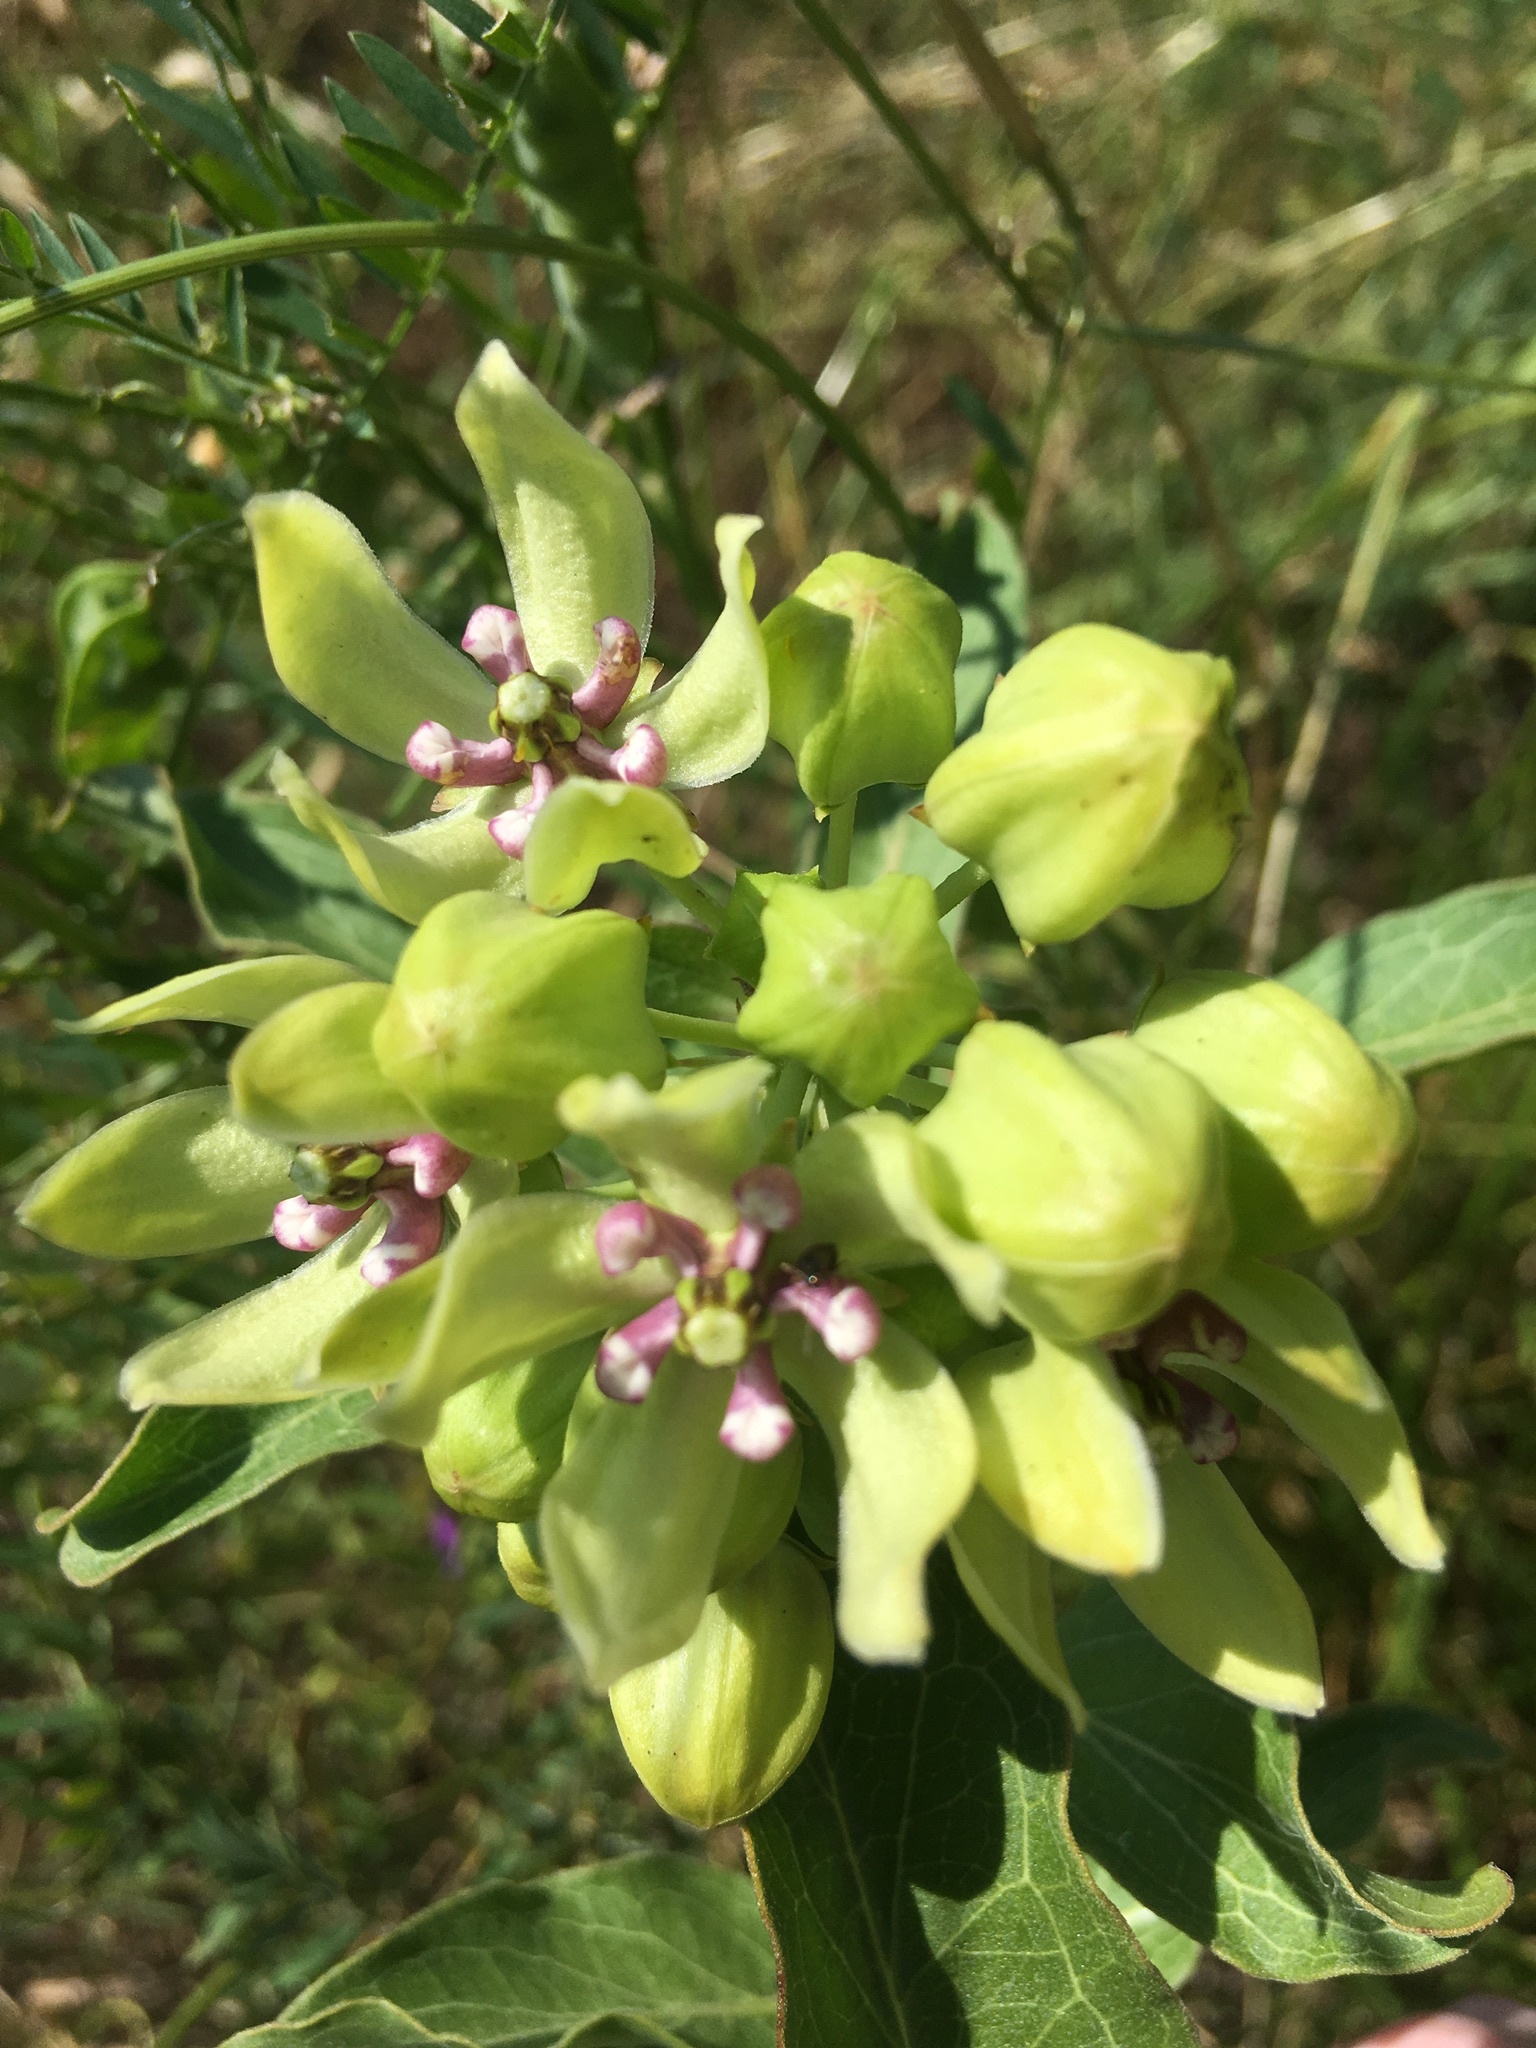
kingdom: Plantae
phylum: Tracheophyta
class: Magnoliopsida
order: Gentianales
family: Apocynaceae
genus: Asclepias
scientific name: Asclepias viridis
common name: Antelope-horns
